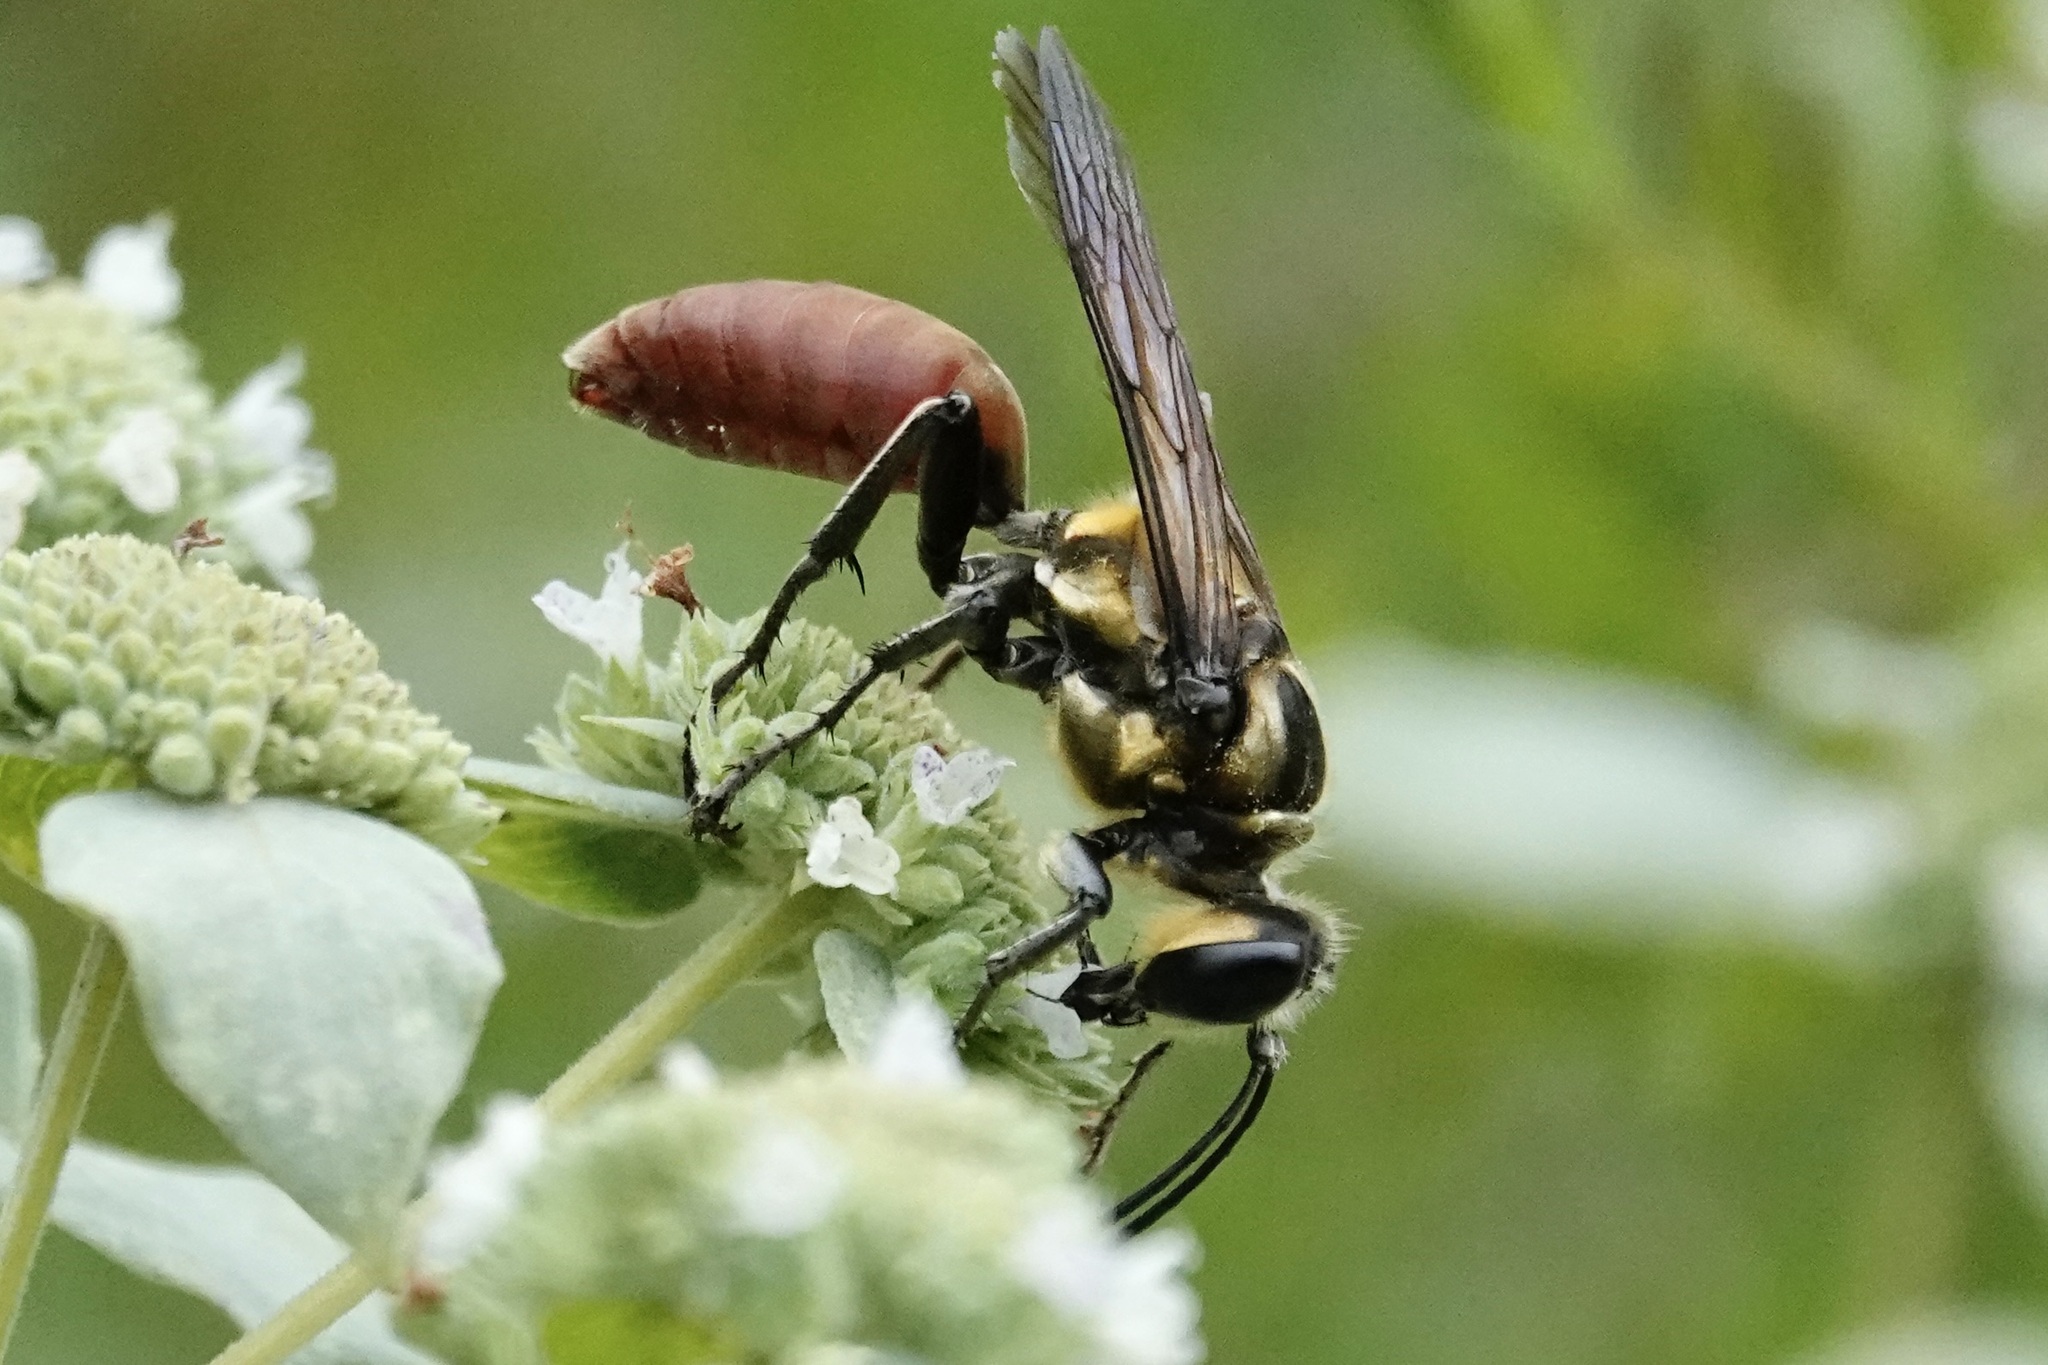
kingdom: Animalia
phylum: Arthropoda
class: Insecta
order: Hymenoptera
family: Sphecidae
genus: Sphex
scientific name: Sphex habenus
